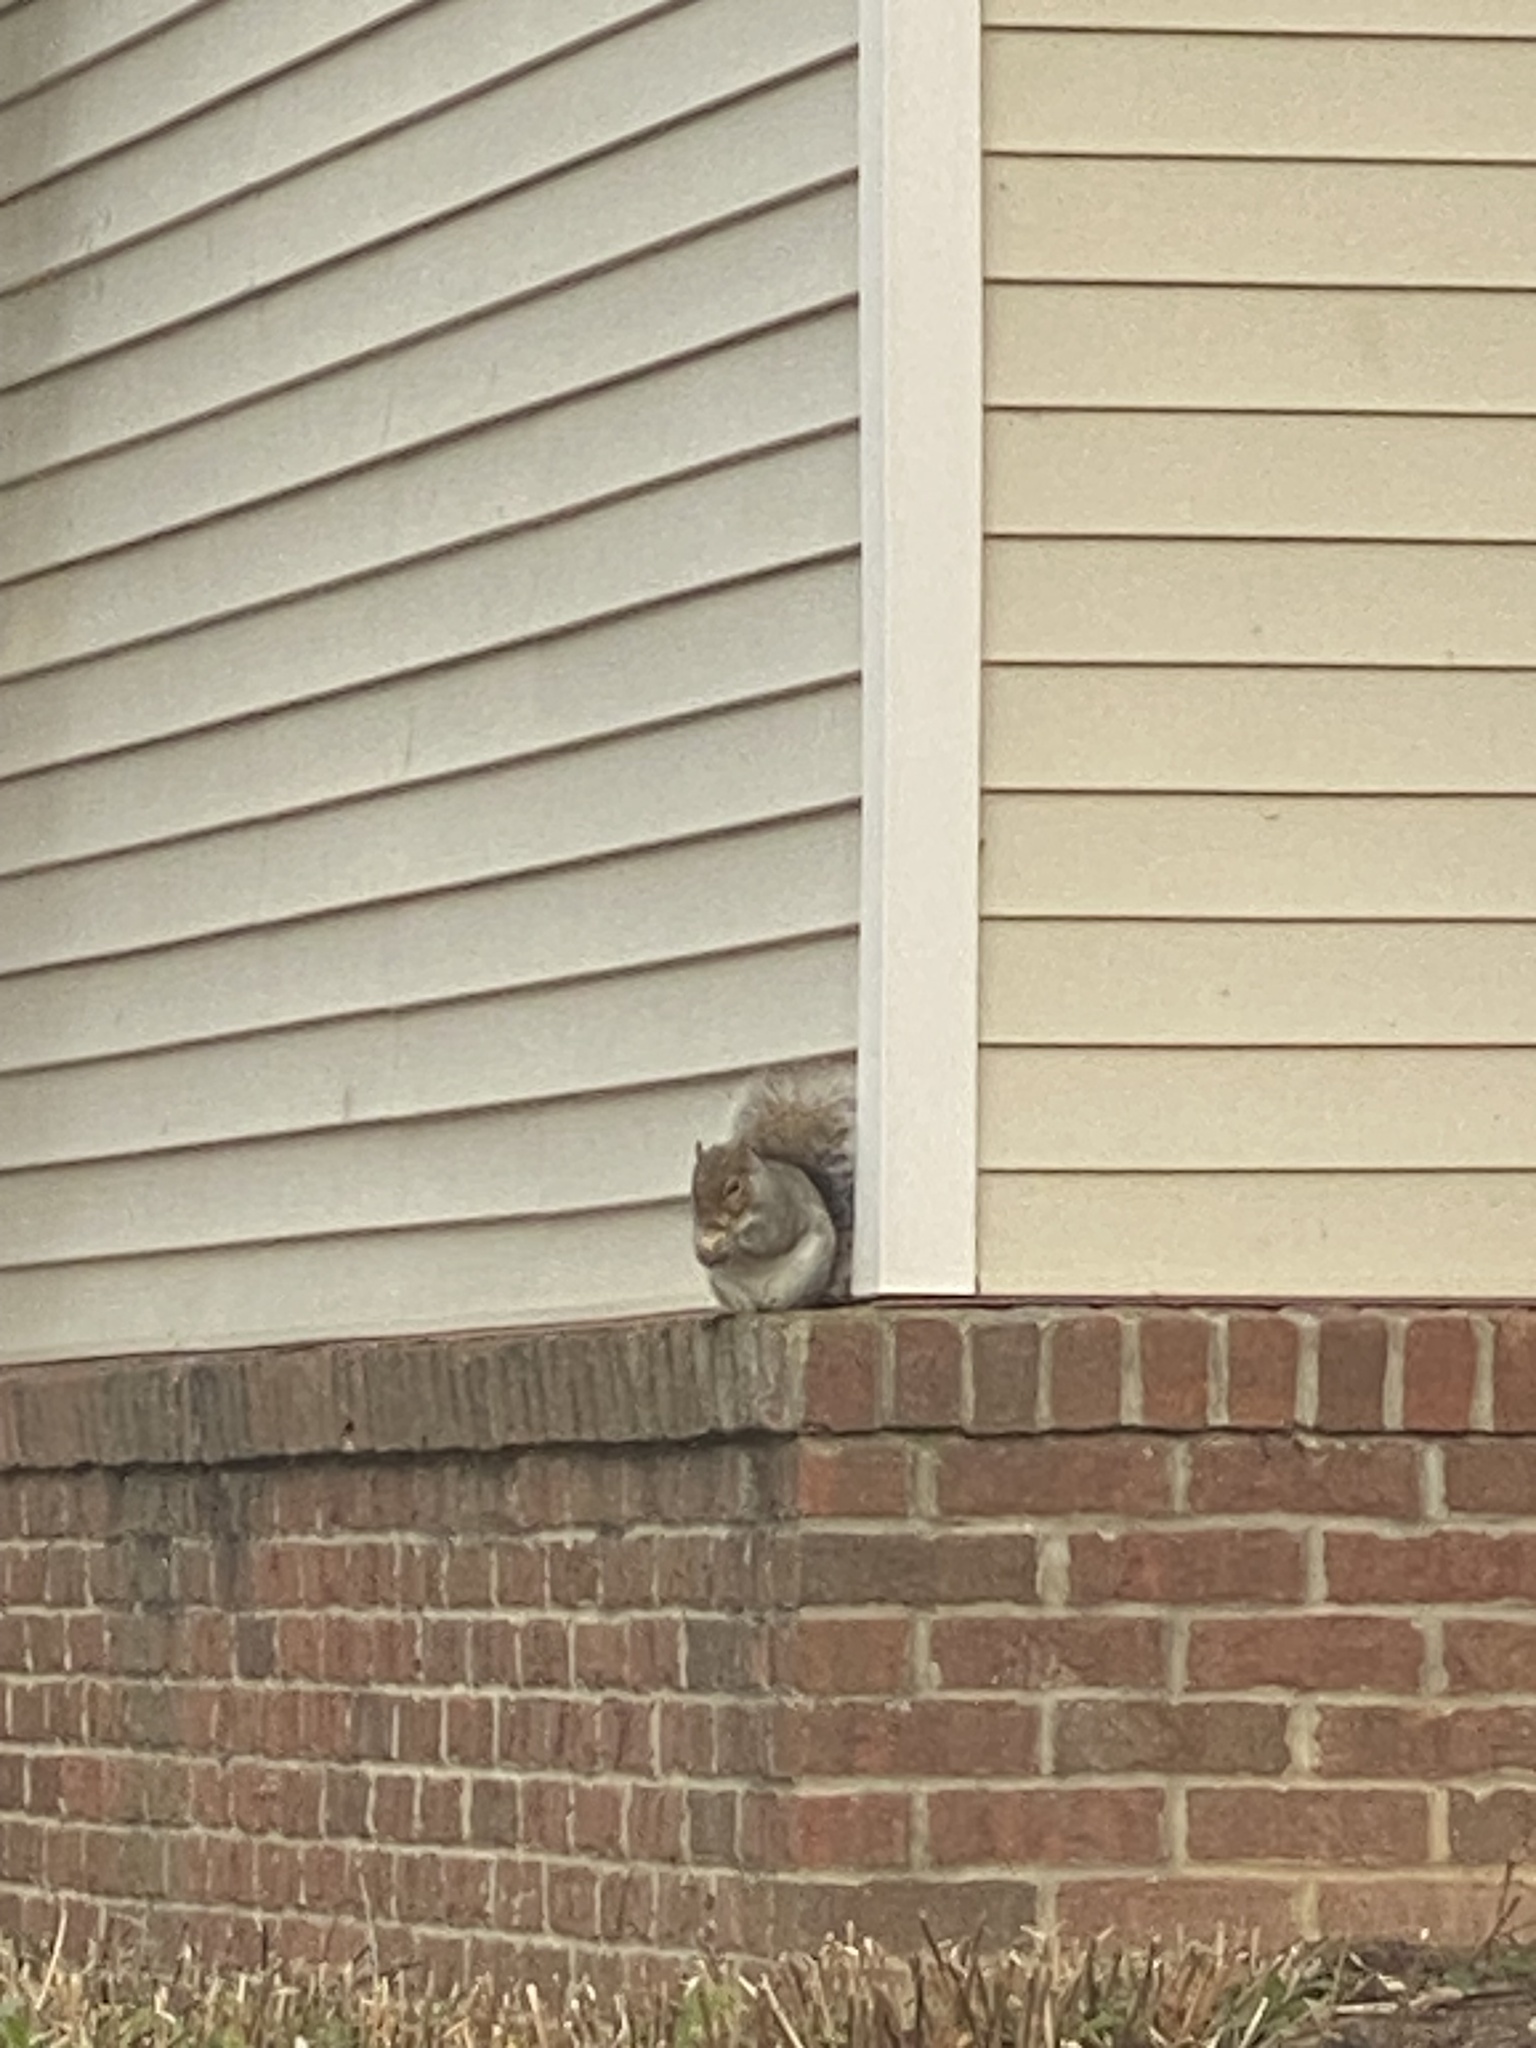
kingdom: Animalia
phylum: Chordata
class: Mammalia
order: Rodentia
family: Sciuridae
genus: Sciurus
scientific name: Sciurus carolinensis
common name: Eastern gray squirrel
